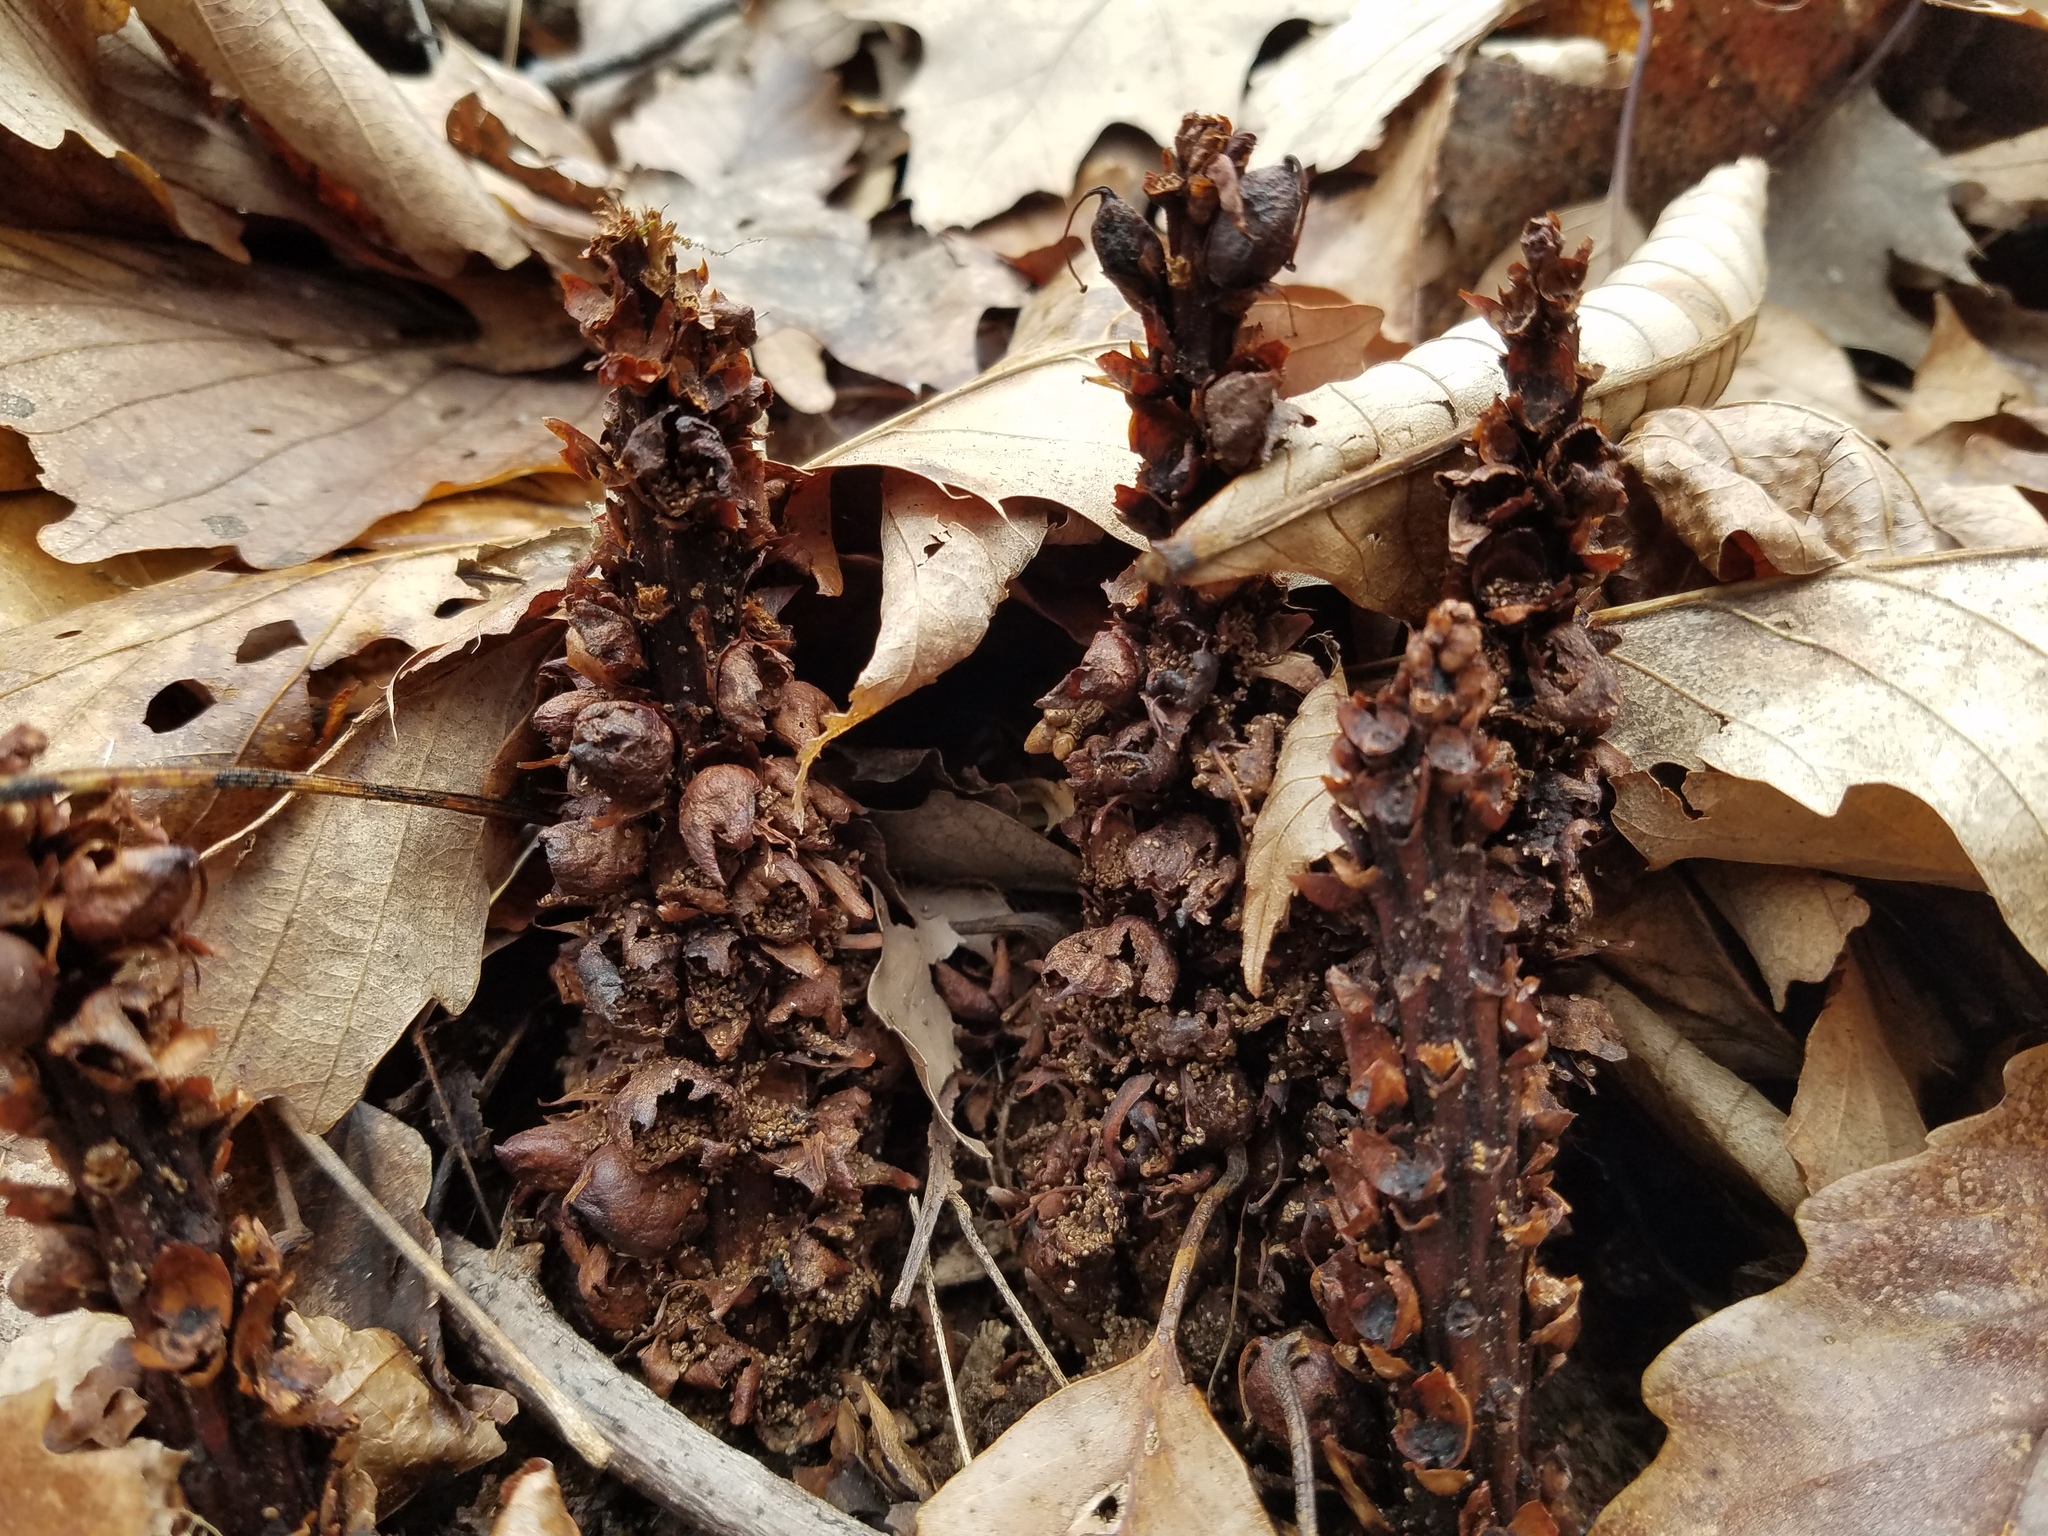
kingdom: Plantae
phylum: Tracheophyta
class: Magnoliopsida
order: Lamiales
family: Orobanchaceae
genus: Conopholis
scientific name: Conopholis americana
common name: American cancer-root
